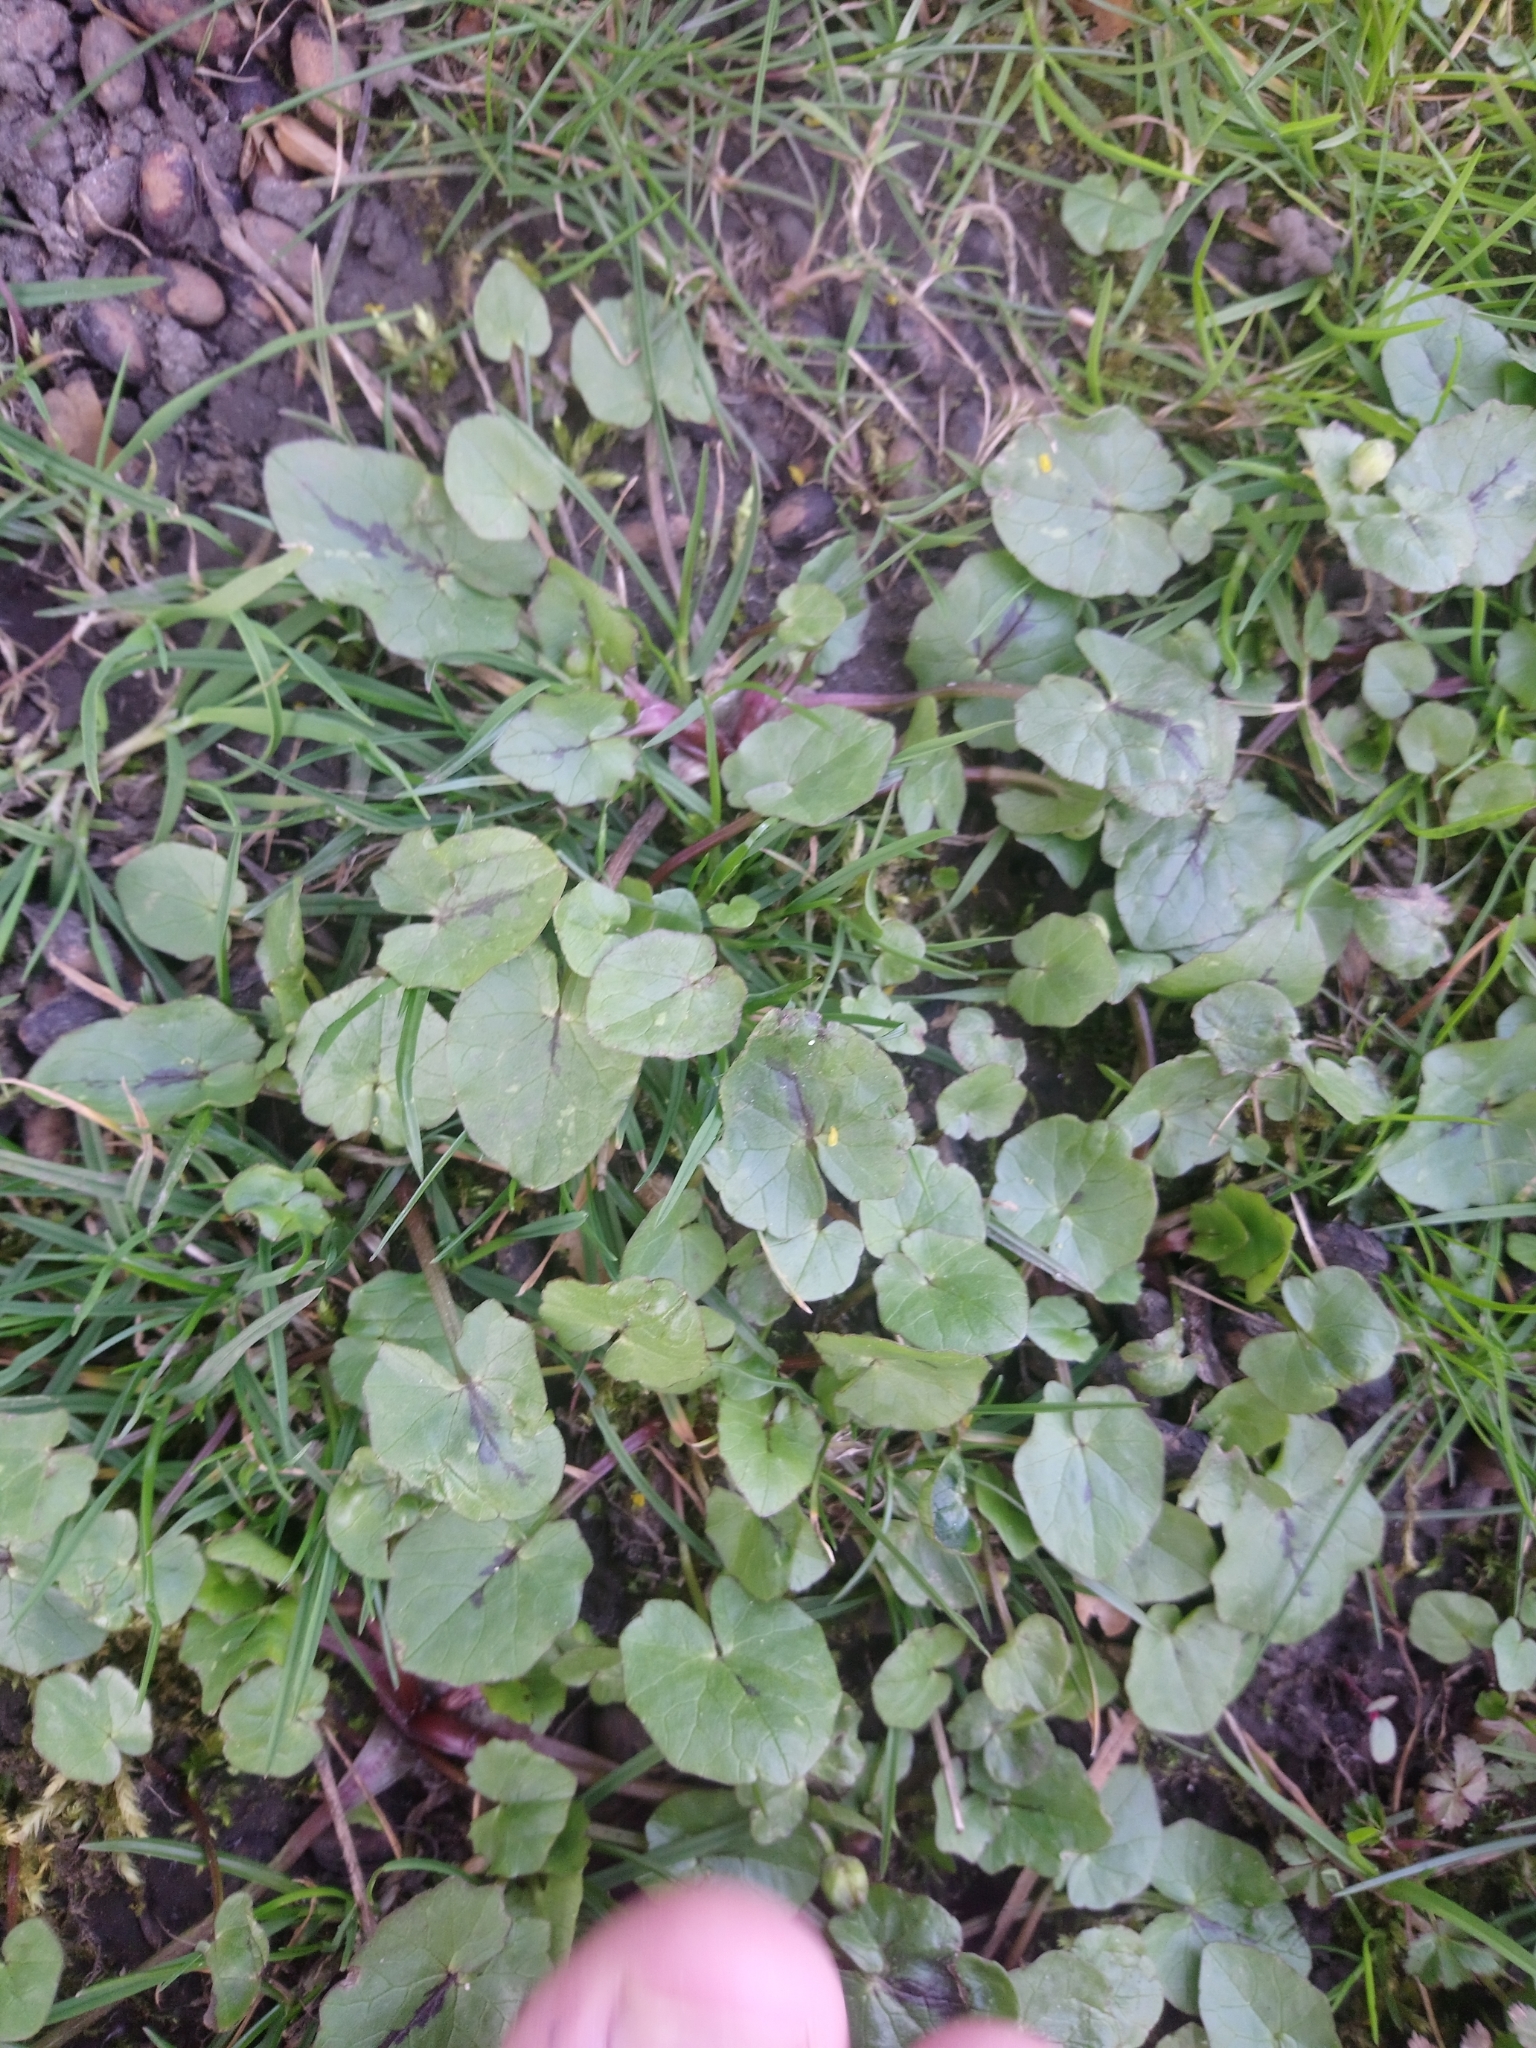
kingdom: Plantae
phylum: Tracheophyta
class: Magnoliopsida
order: Ranunculales
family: Ranunculaceae
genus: Ficaria
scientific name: Ficaria verna
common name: Lesser celandine
